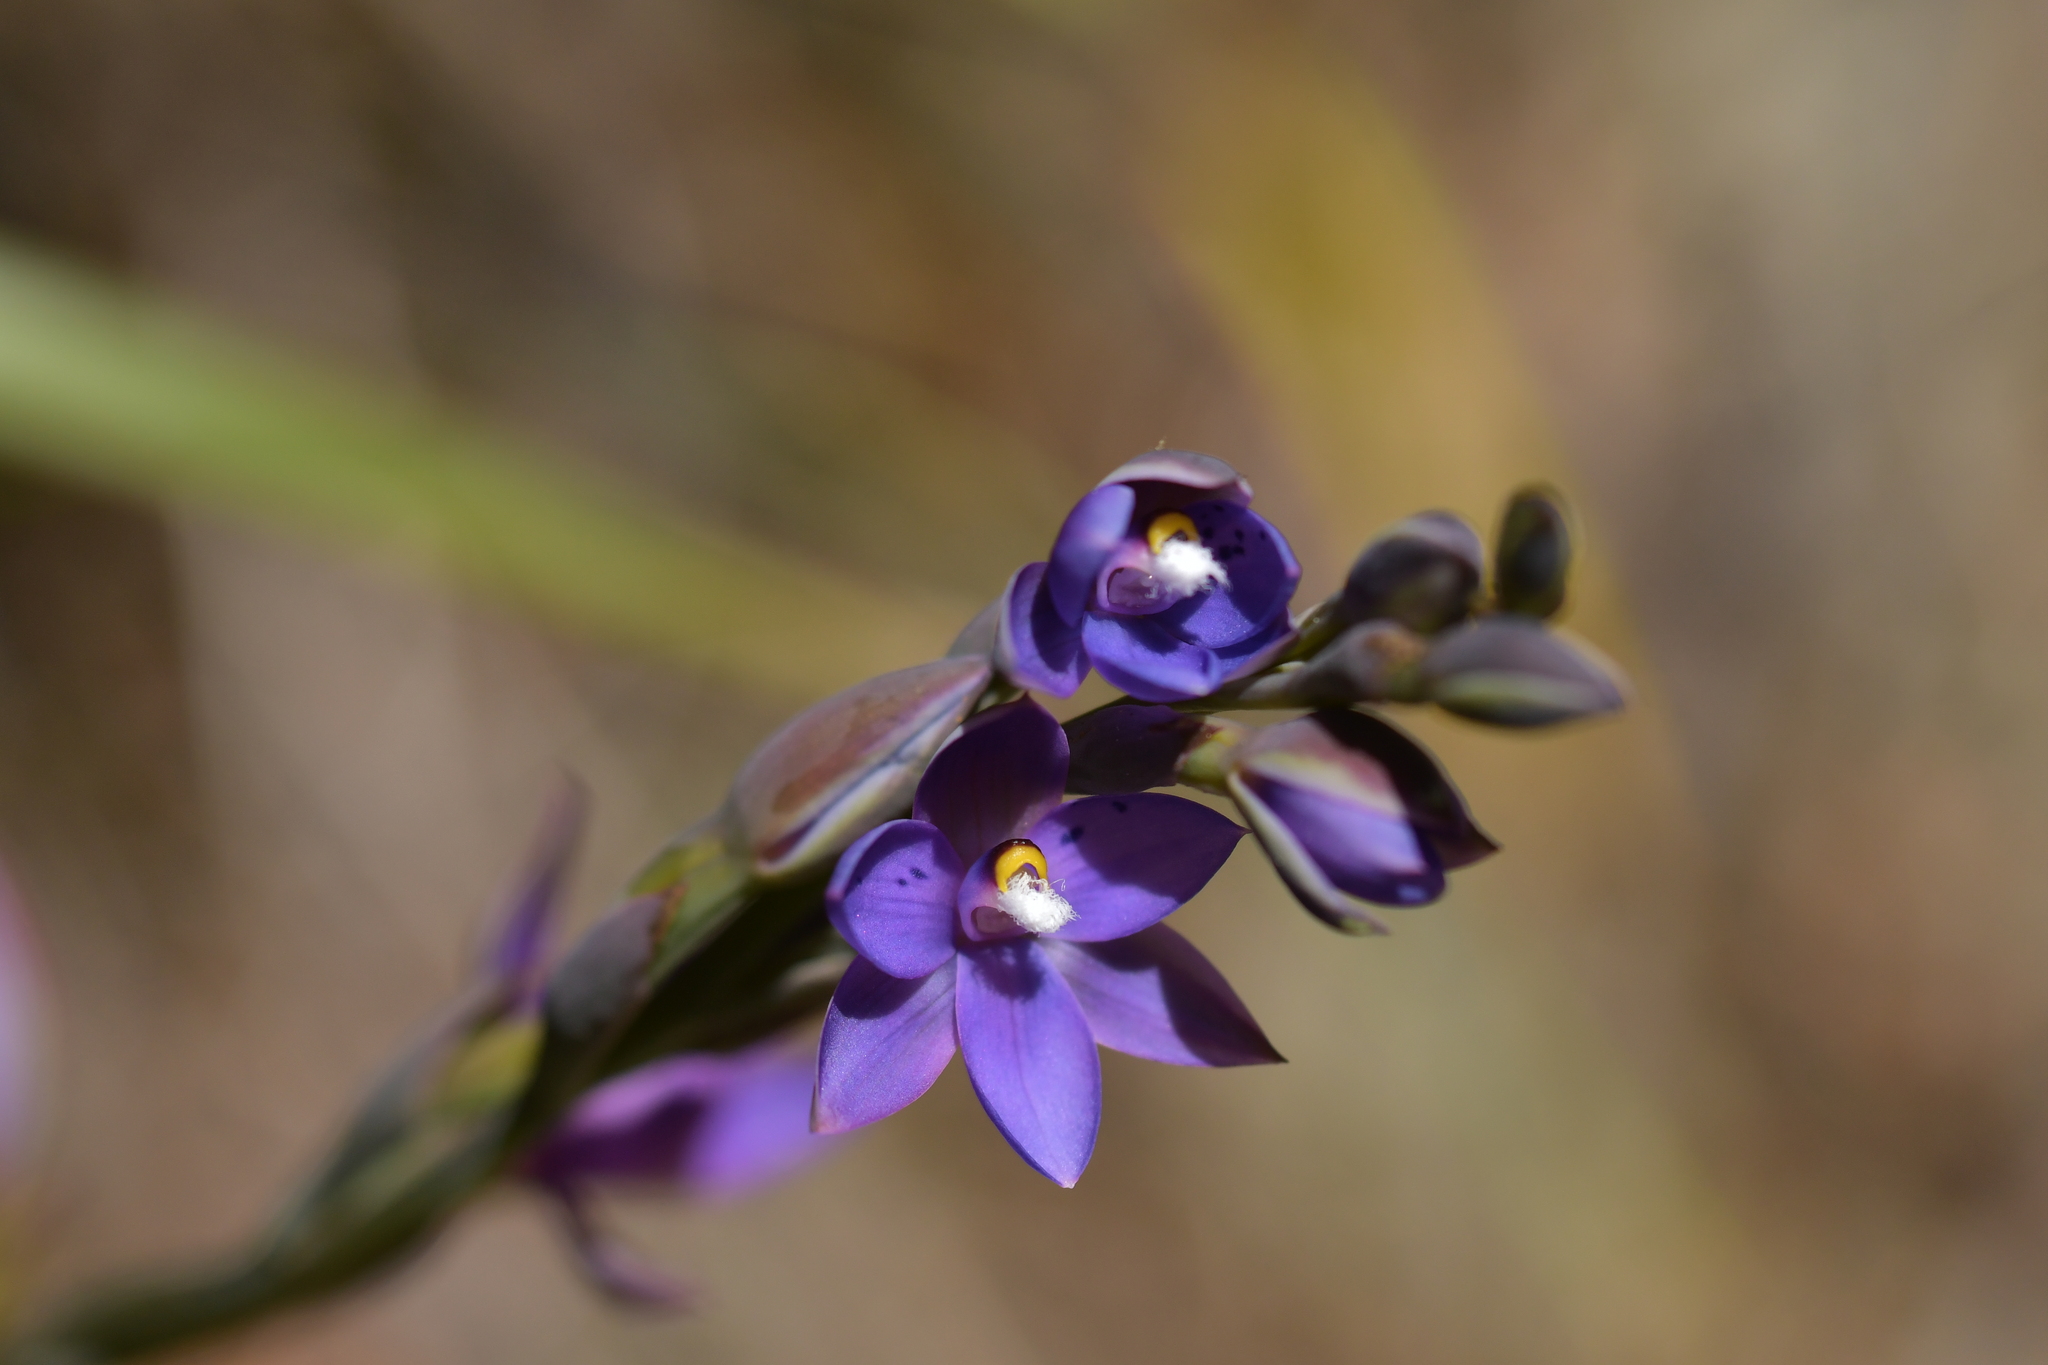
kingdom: Plantae
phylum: Tracheophyta
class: Liliopsida
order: Asparagales
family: Orchidaceae
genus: Thelymitra
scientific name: Thelymitra nervosa
